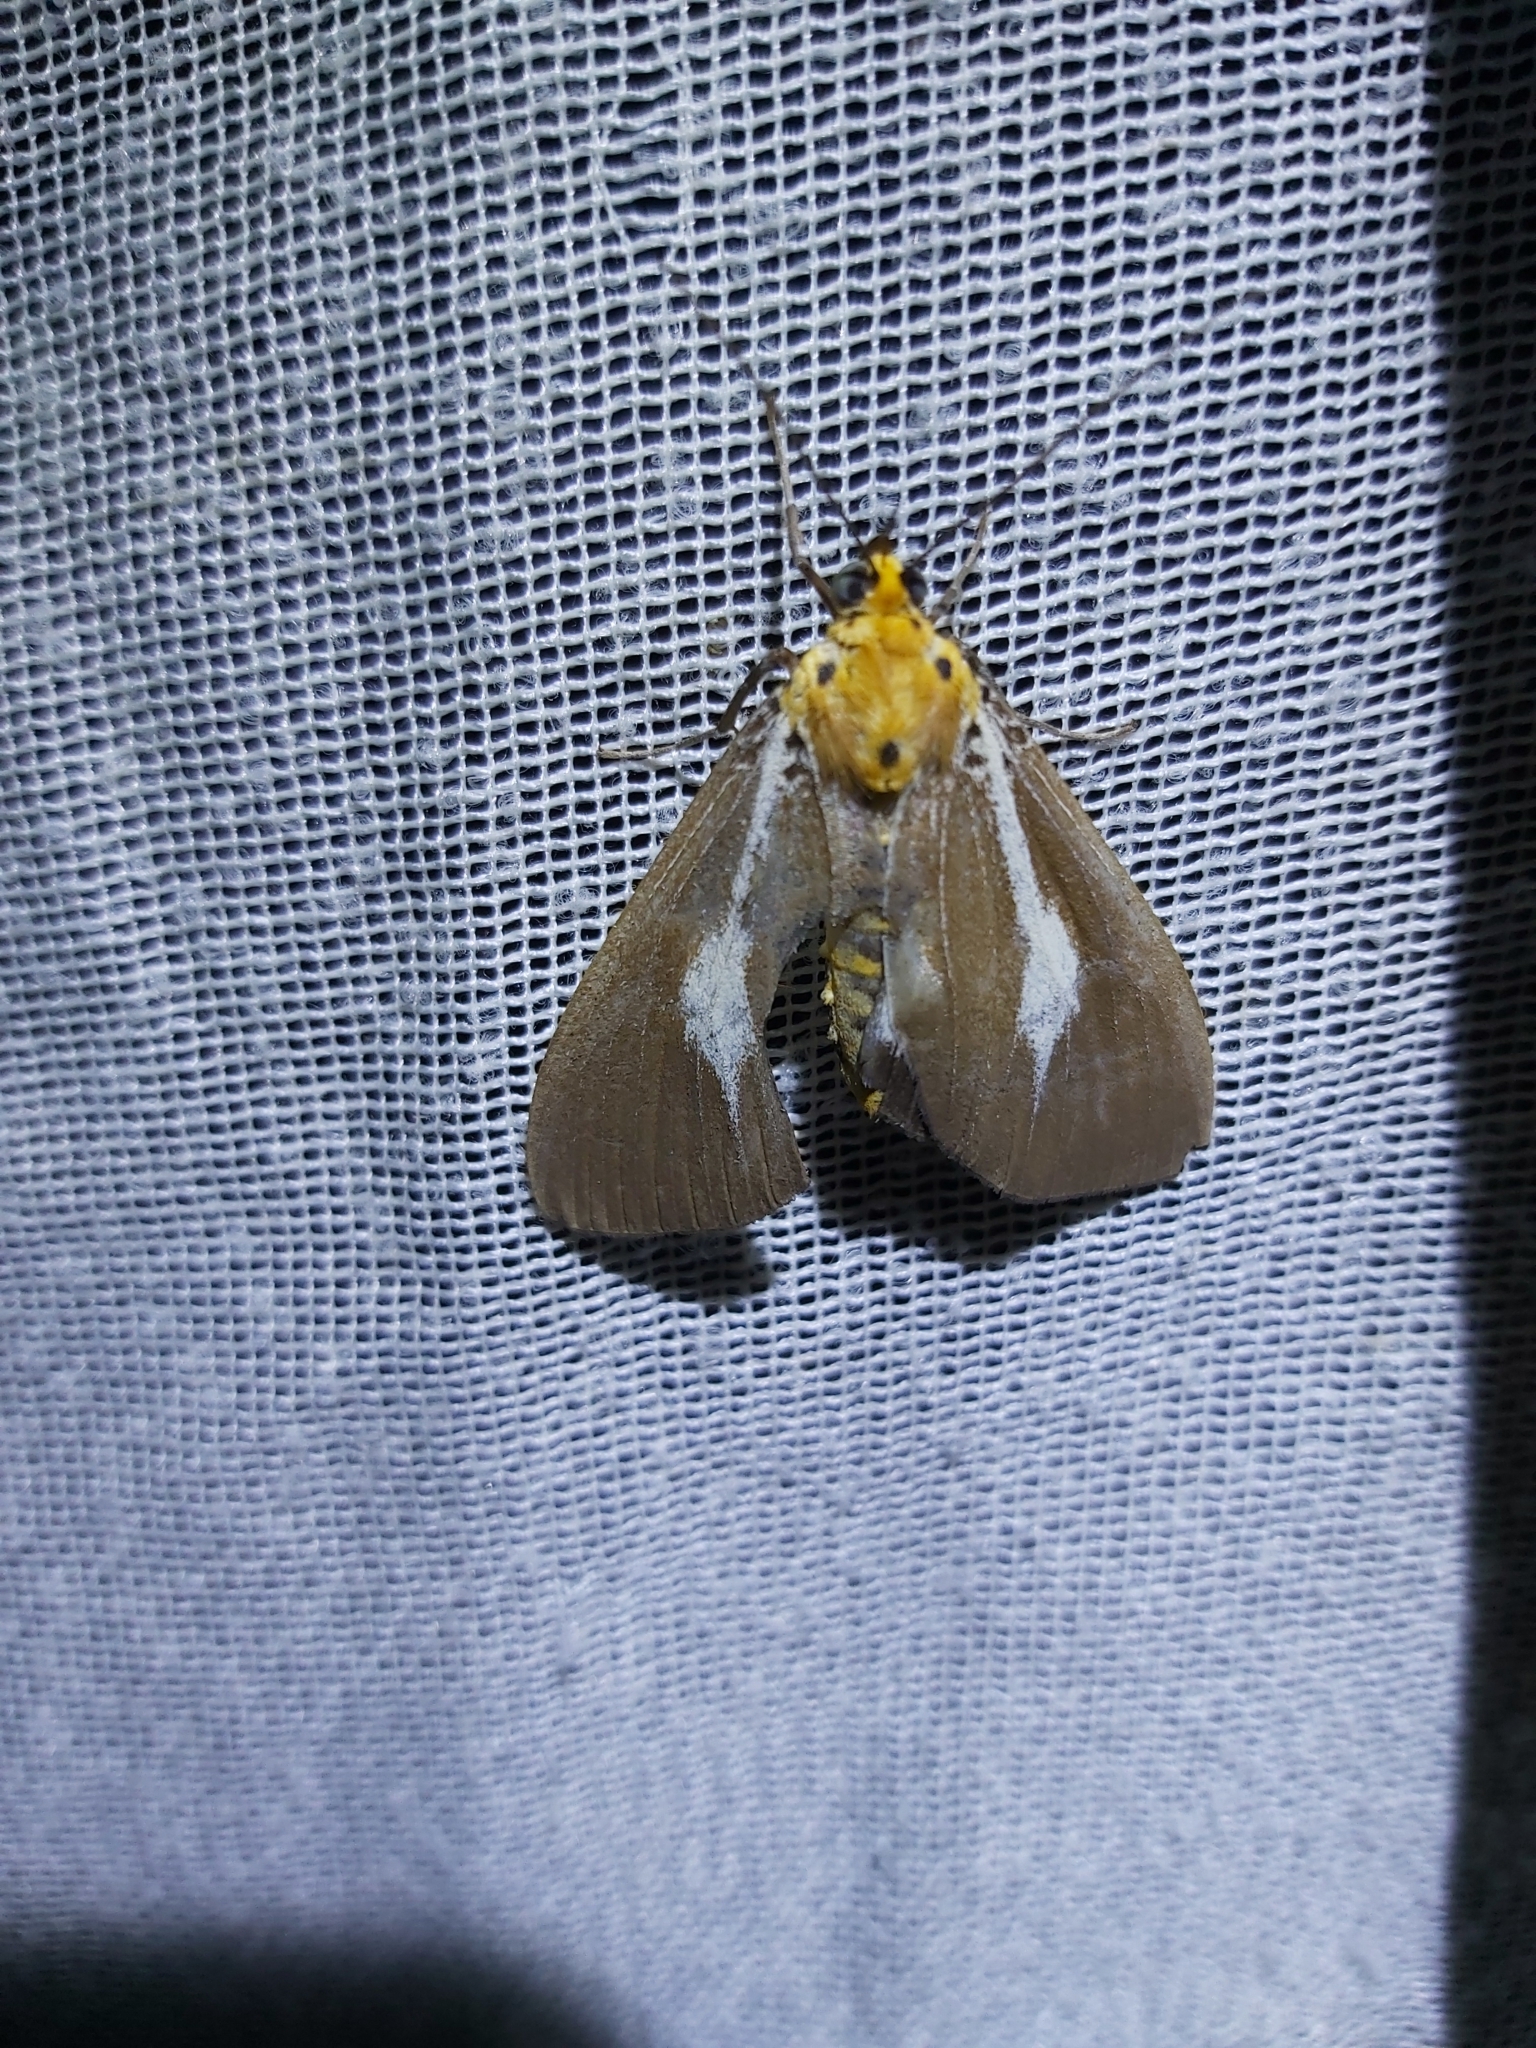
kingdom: Animalia
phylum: Arthropoda
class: Insecta
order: Lepidoptera
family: Erebidae
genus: Asota
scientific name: Asota heliconia
